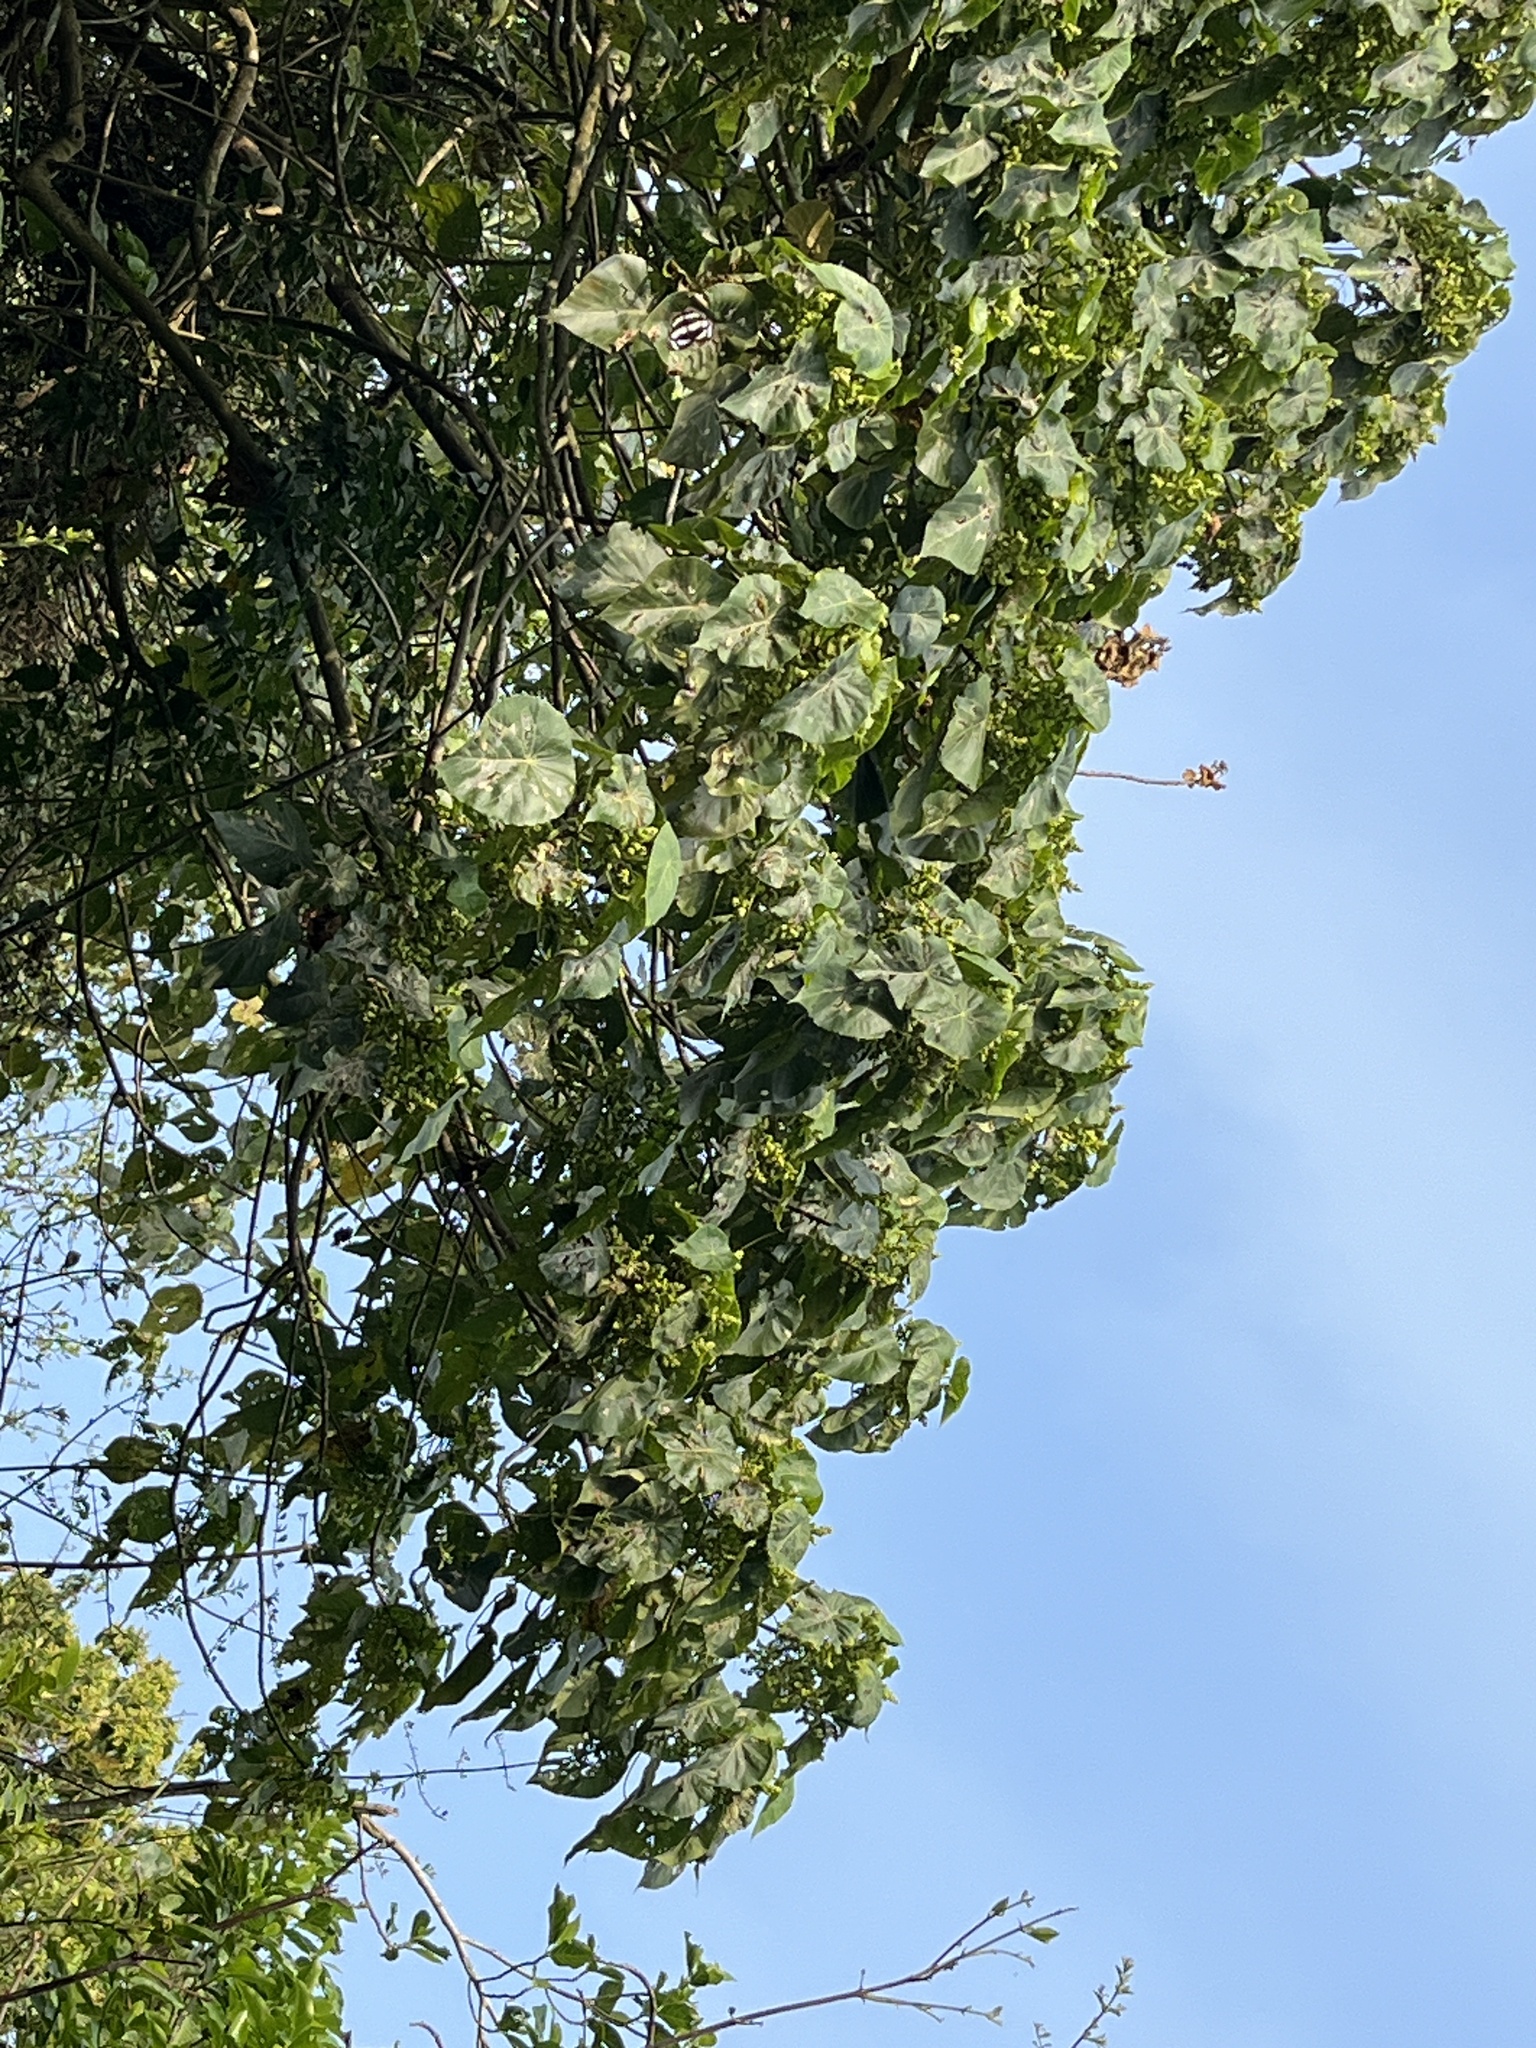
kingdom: Plantae
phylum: Tracheophyta
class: Magnoliopsida
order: Malpighiales
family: Euphorbiaceae
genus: Macaranga
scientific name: Macaranga tanarius
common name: Parasol leaf tree
